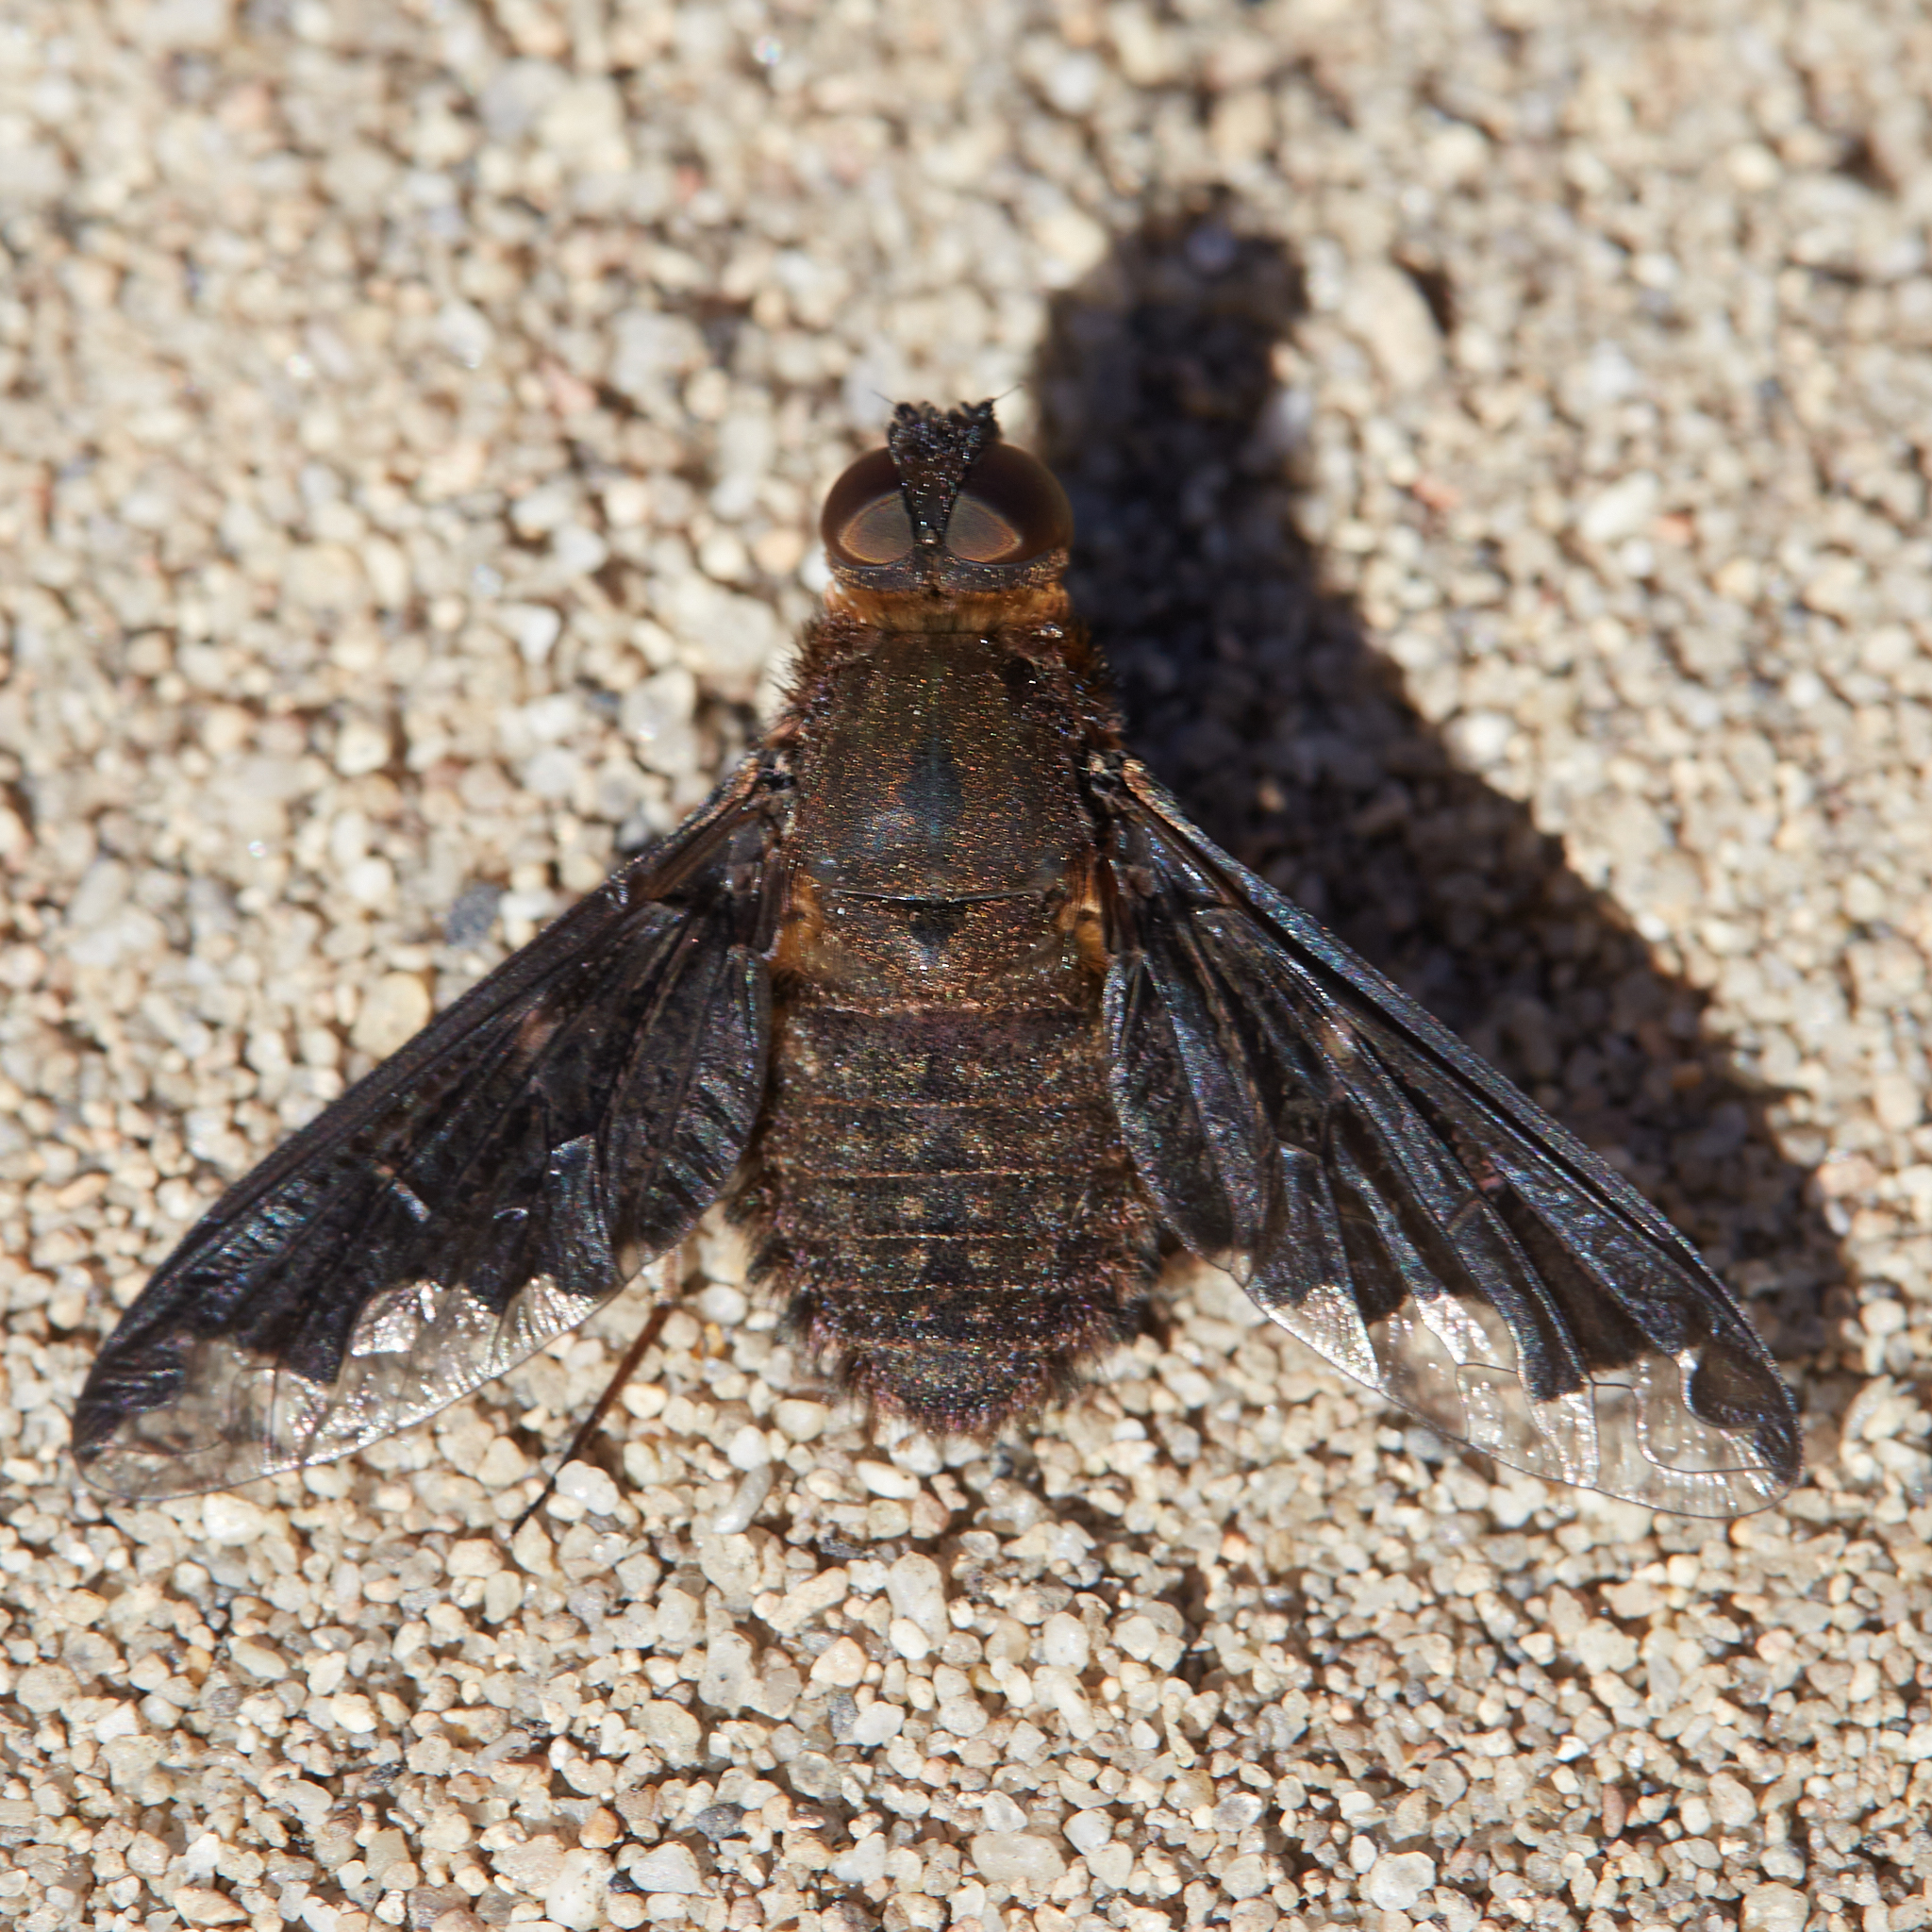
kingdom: Animalia
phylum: Arthropoda
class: Insecta
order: Diptera
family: Bombyliidae
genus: Hemipenthes
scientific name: Hemipenthes sinuosus
